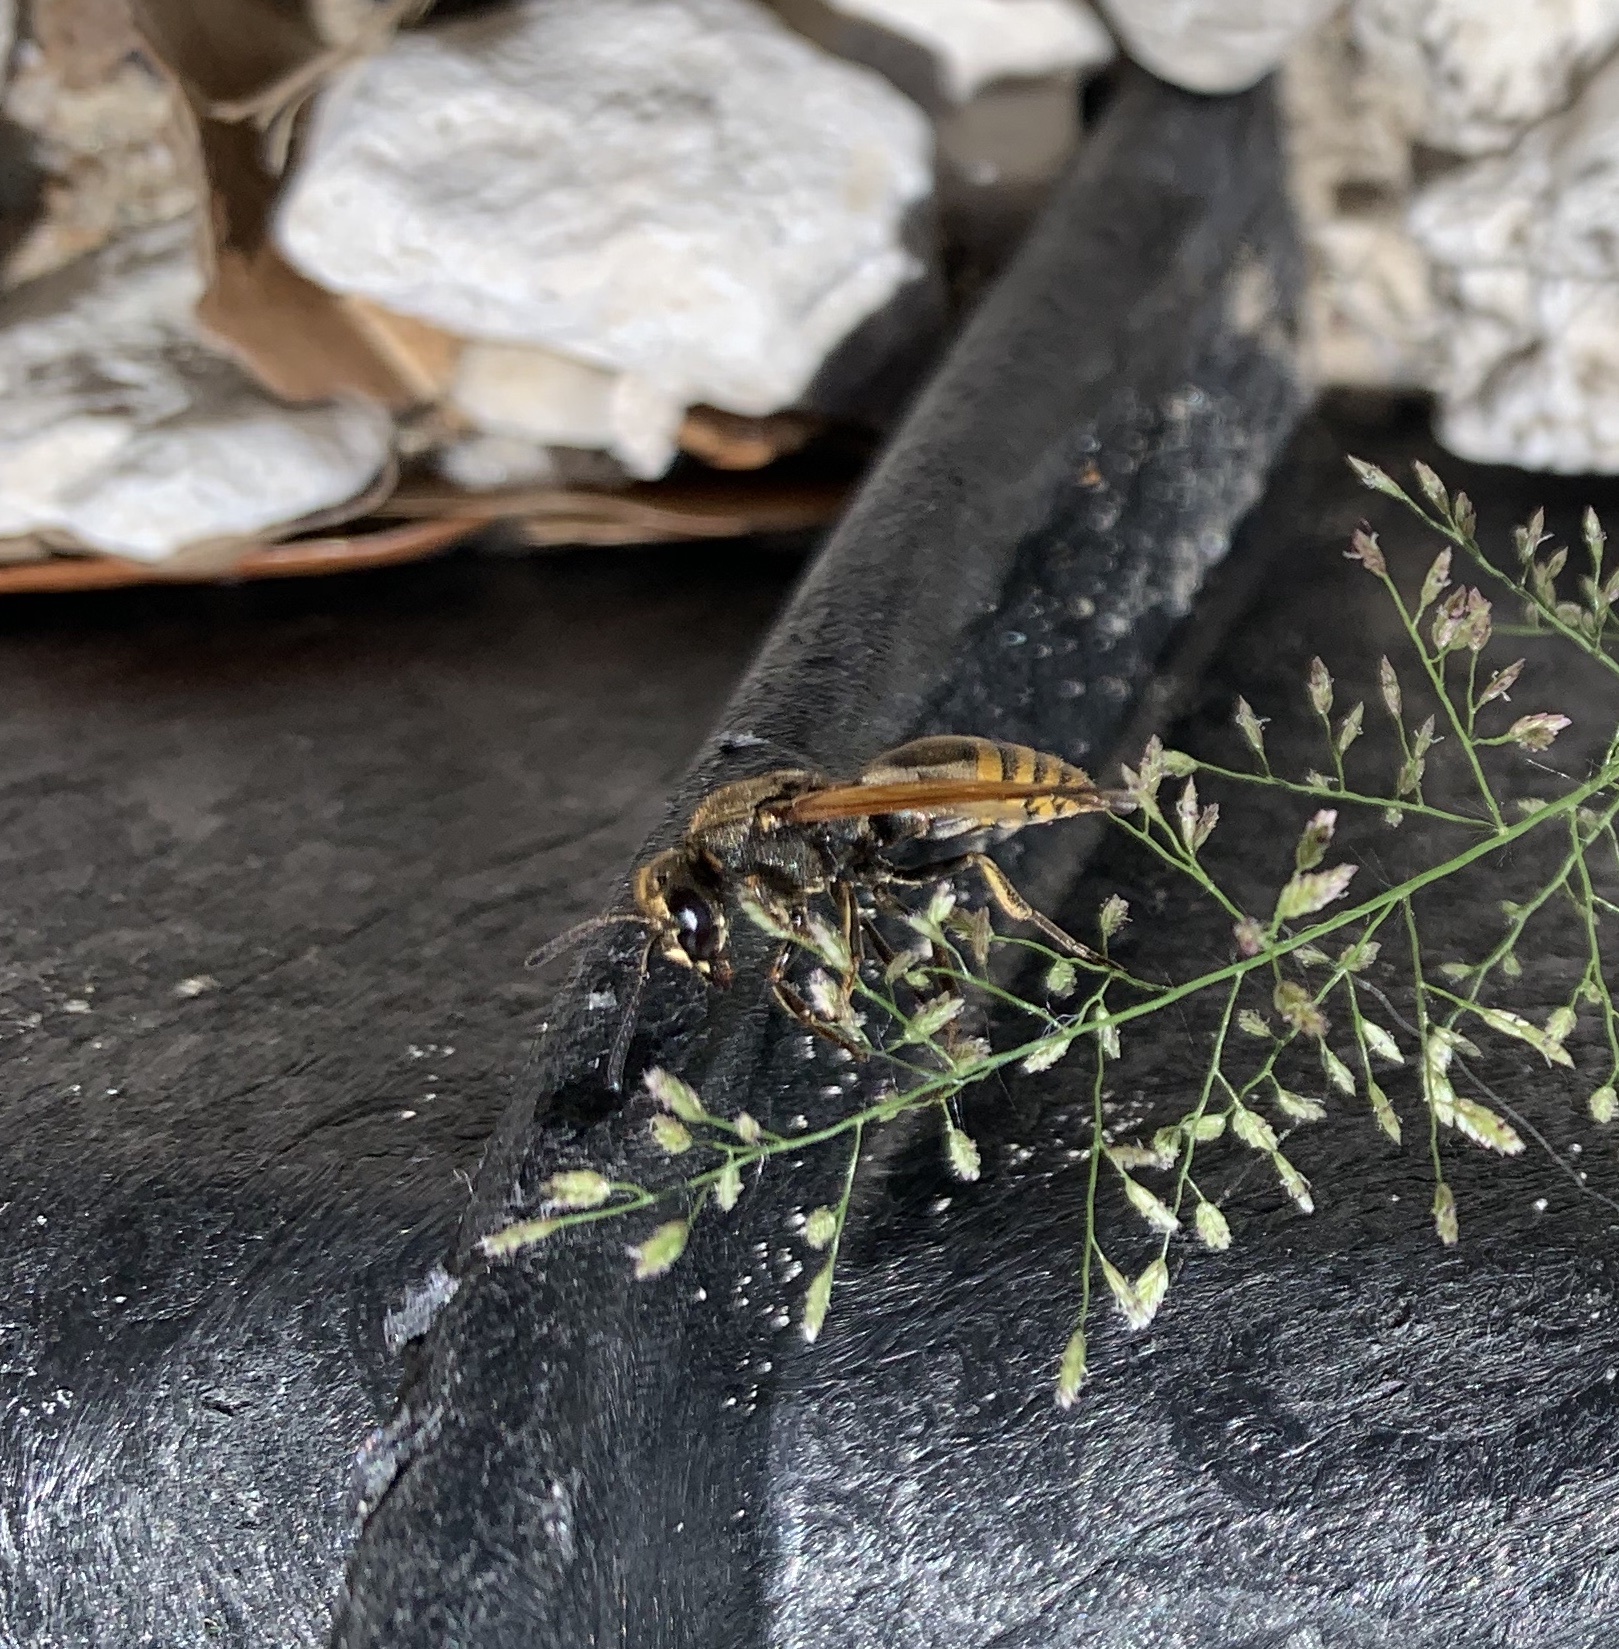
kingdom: Animalia
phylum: Arthropoda
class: Insecta
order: Hymenoptera
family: Eumenidae
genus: Pachodynerus
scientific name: Pachodynerus nasidens
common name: Key hole wasp
